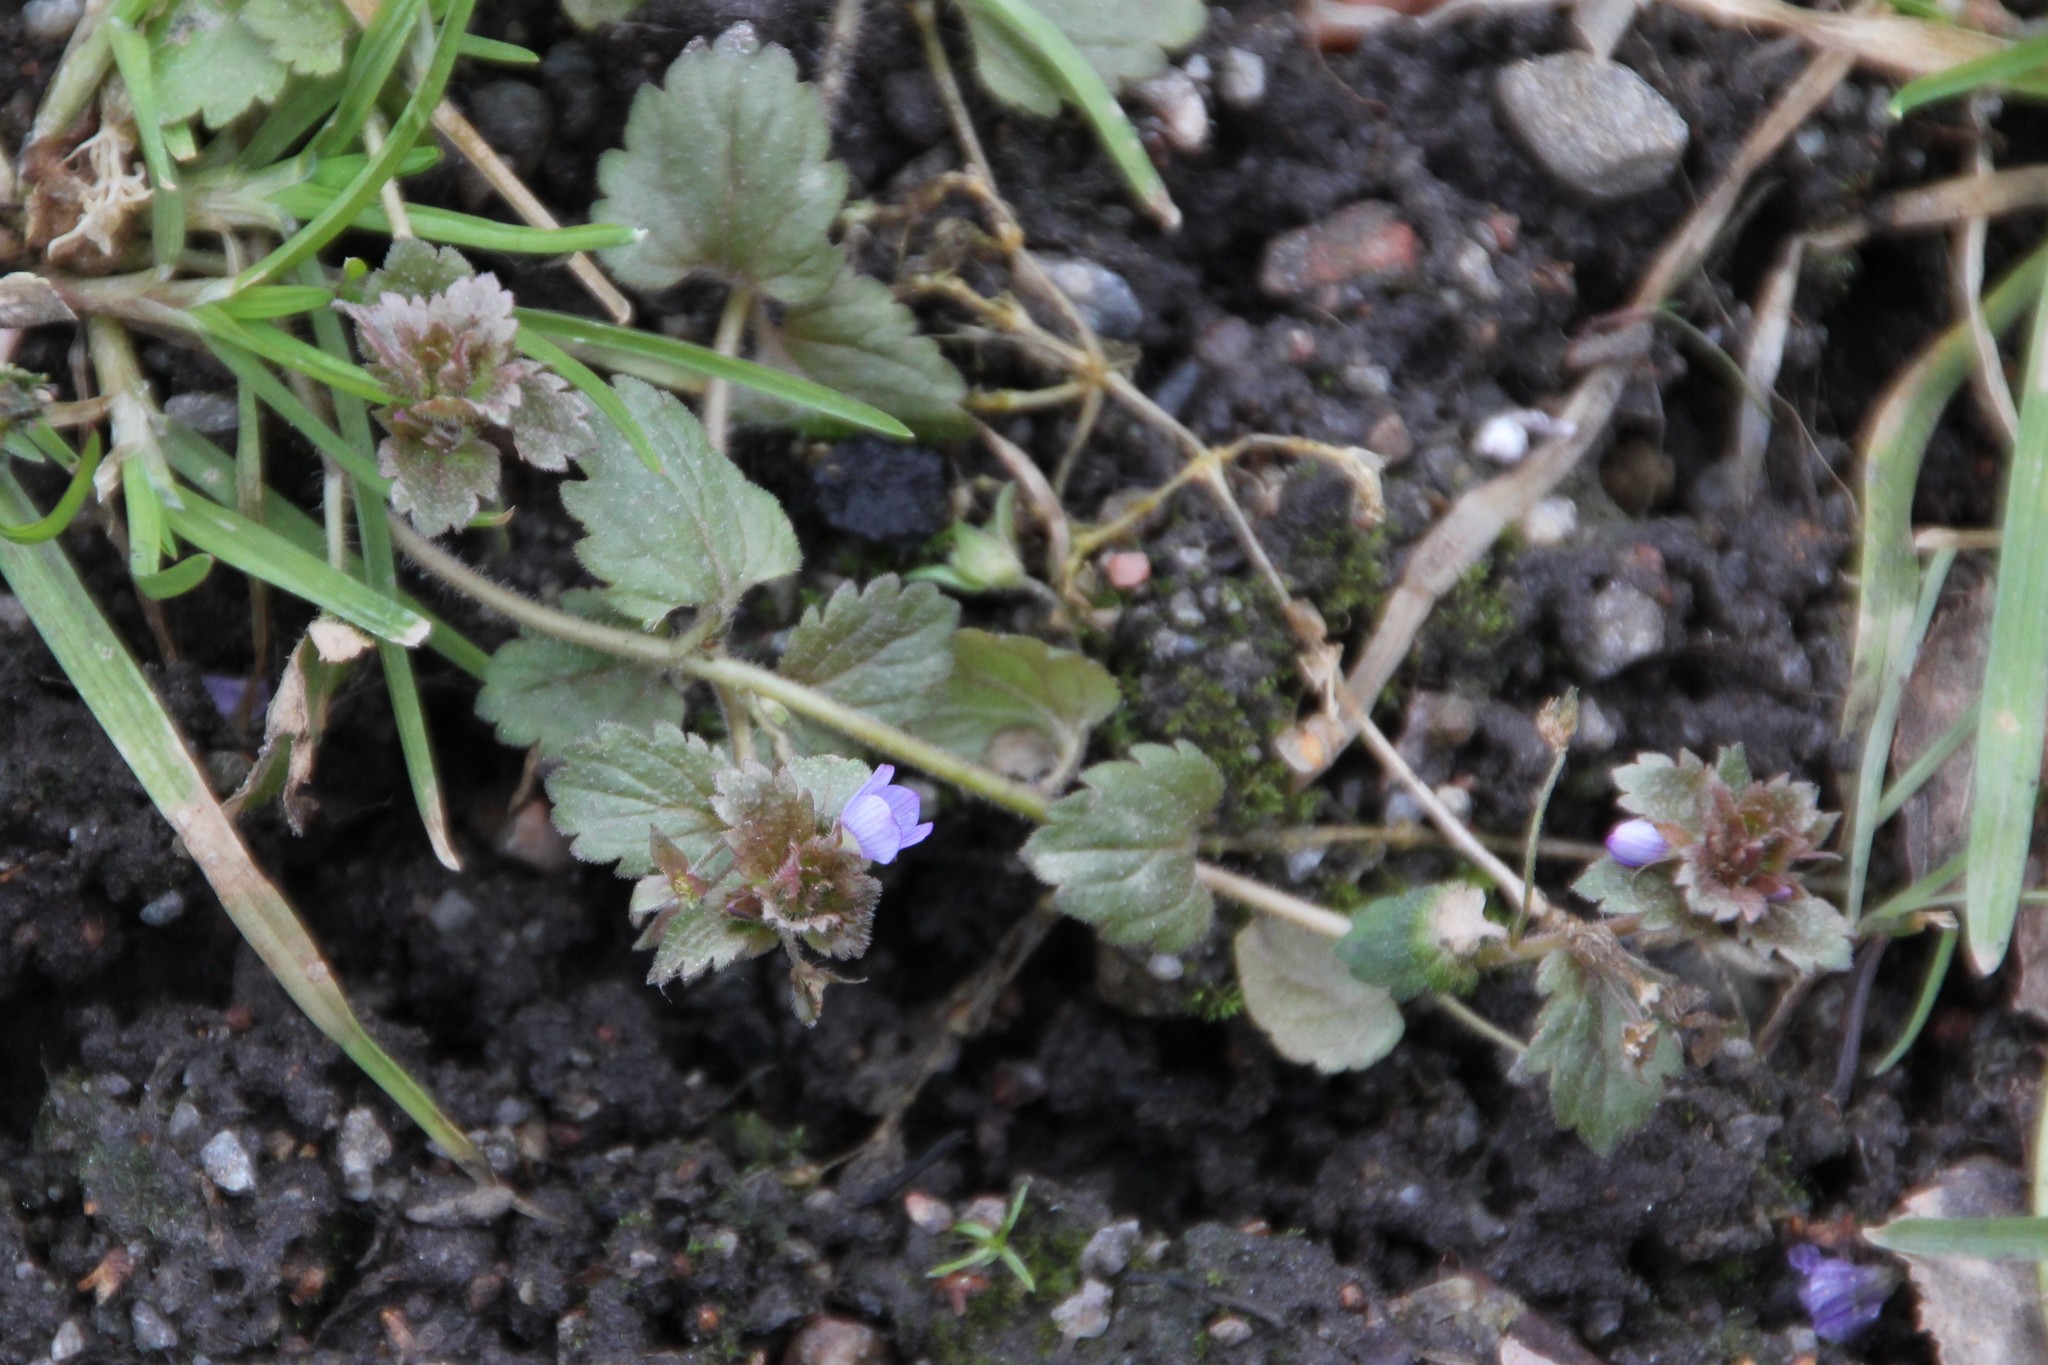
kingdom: Plantae
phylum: Tracheophyta
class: Magnoliopsida
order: Lamiales
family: Plantaginaceae
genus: Veronica
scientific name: Veronica persica
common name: Common field-speedwell
